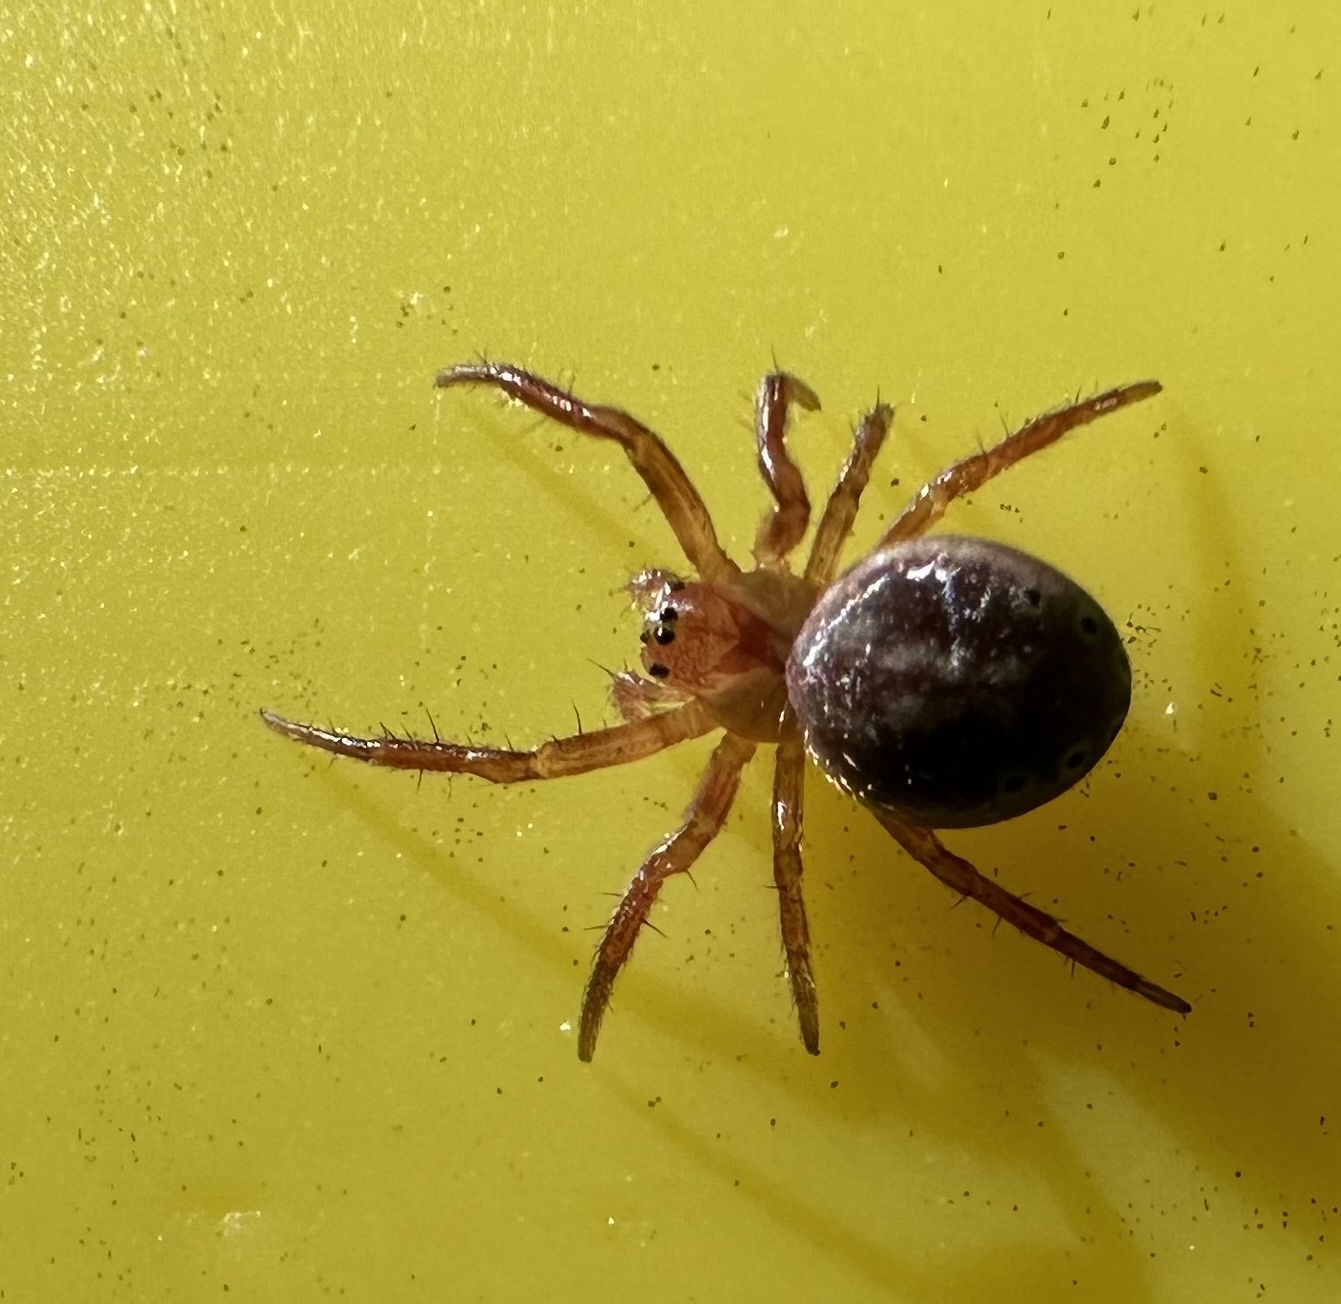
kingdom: Animalia
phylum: Arthropoda
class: Arachnida
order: Araneae
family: Araneidae
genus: Araniella
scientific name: Araniella displicata
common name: Sixspotted orb weaver
